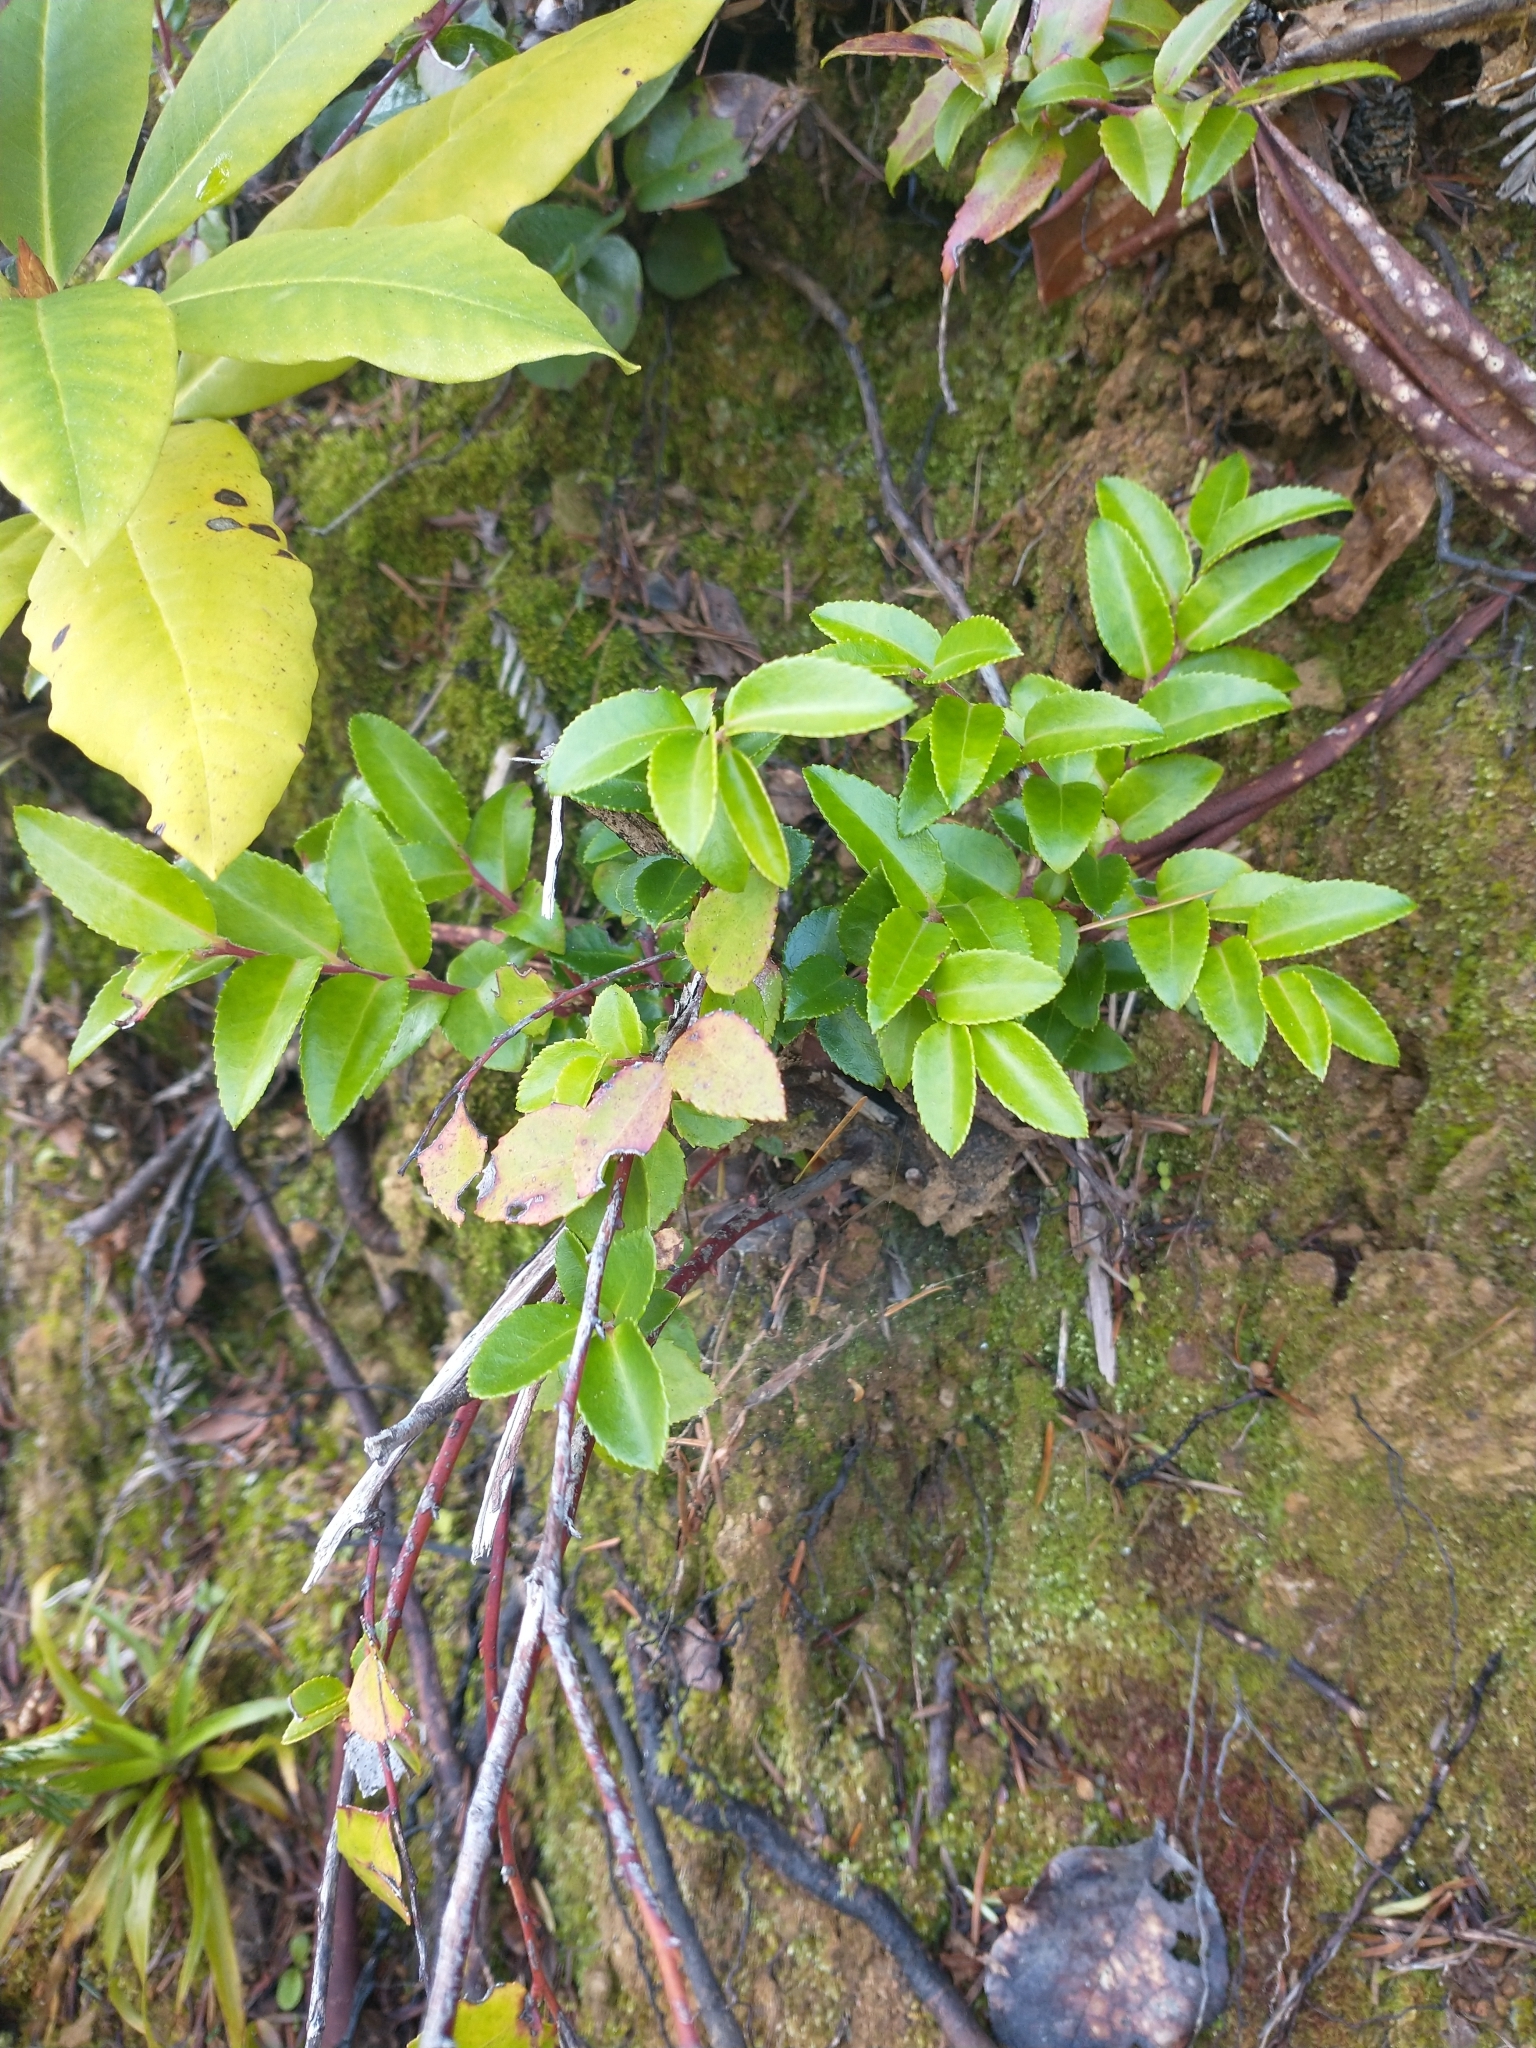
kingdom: Plantae
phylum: Tracheophyta
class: Magnoliopsida
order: Ericales
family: Ericaceae
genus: Vaccinium
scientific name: Vaccinium ovatum
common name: California-huckleberry
